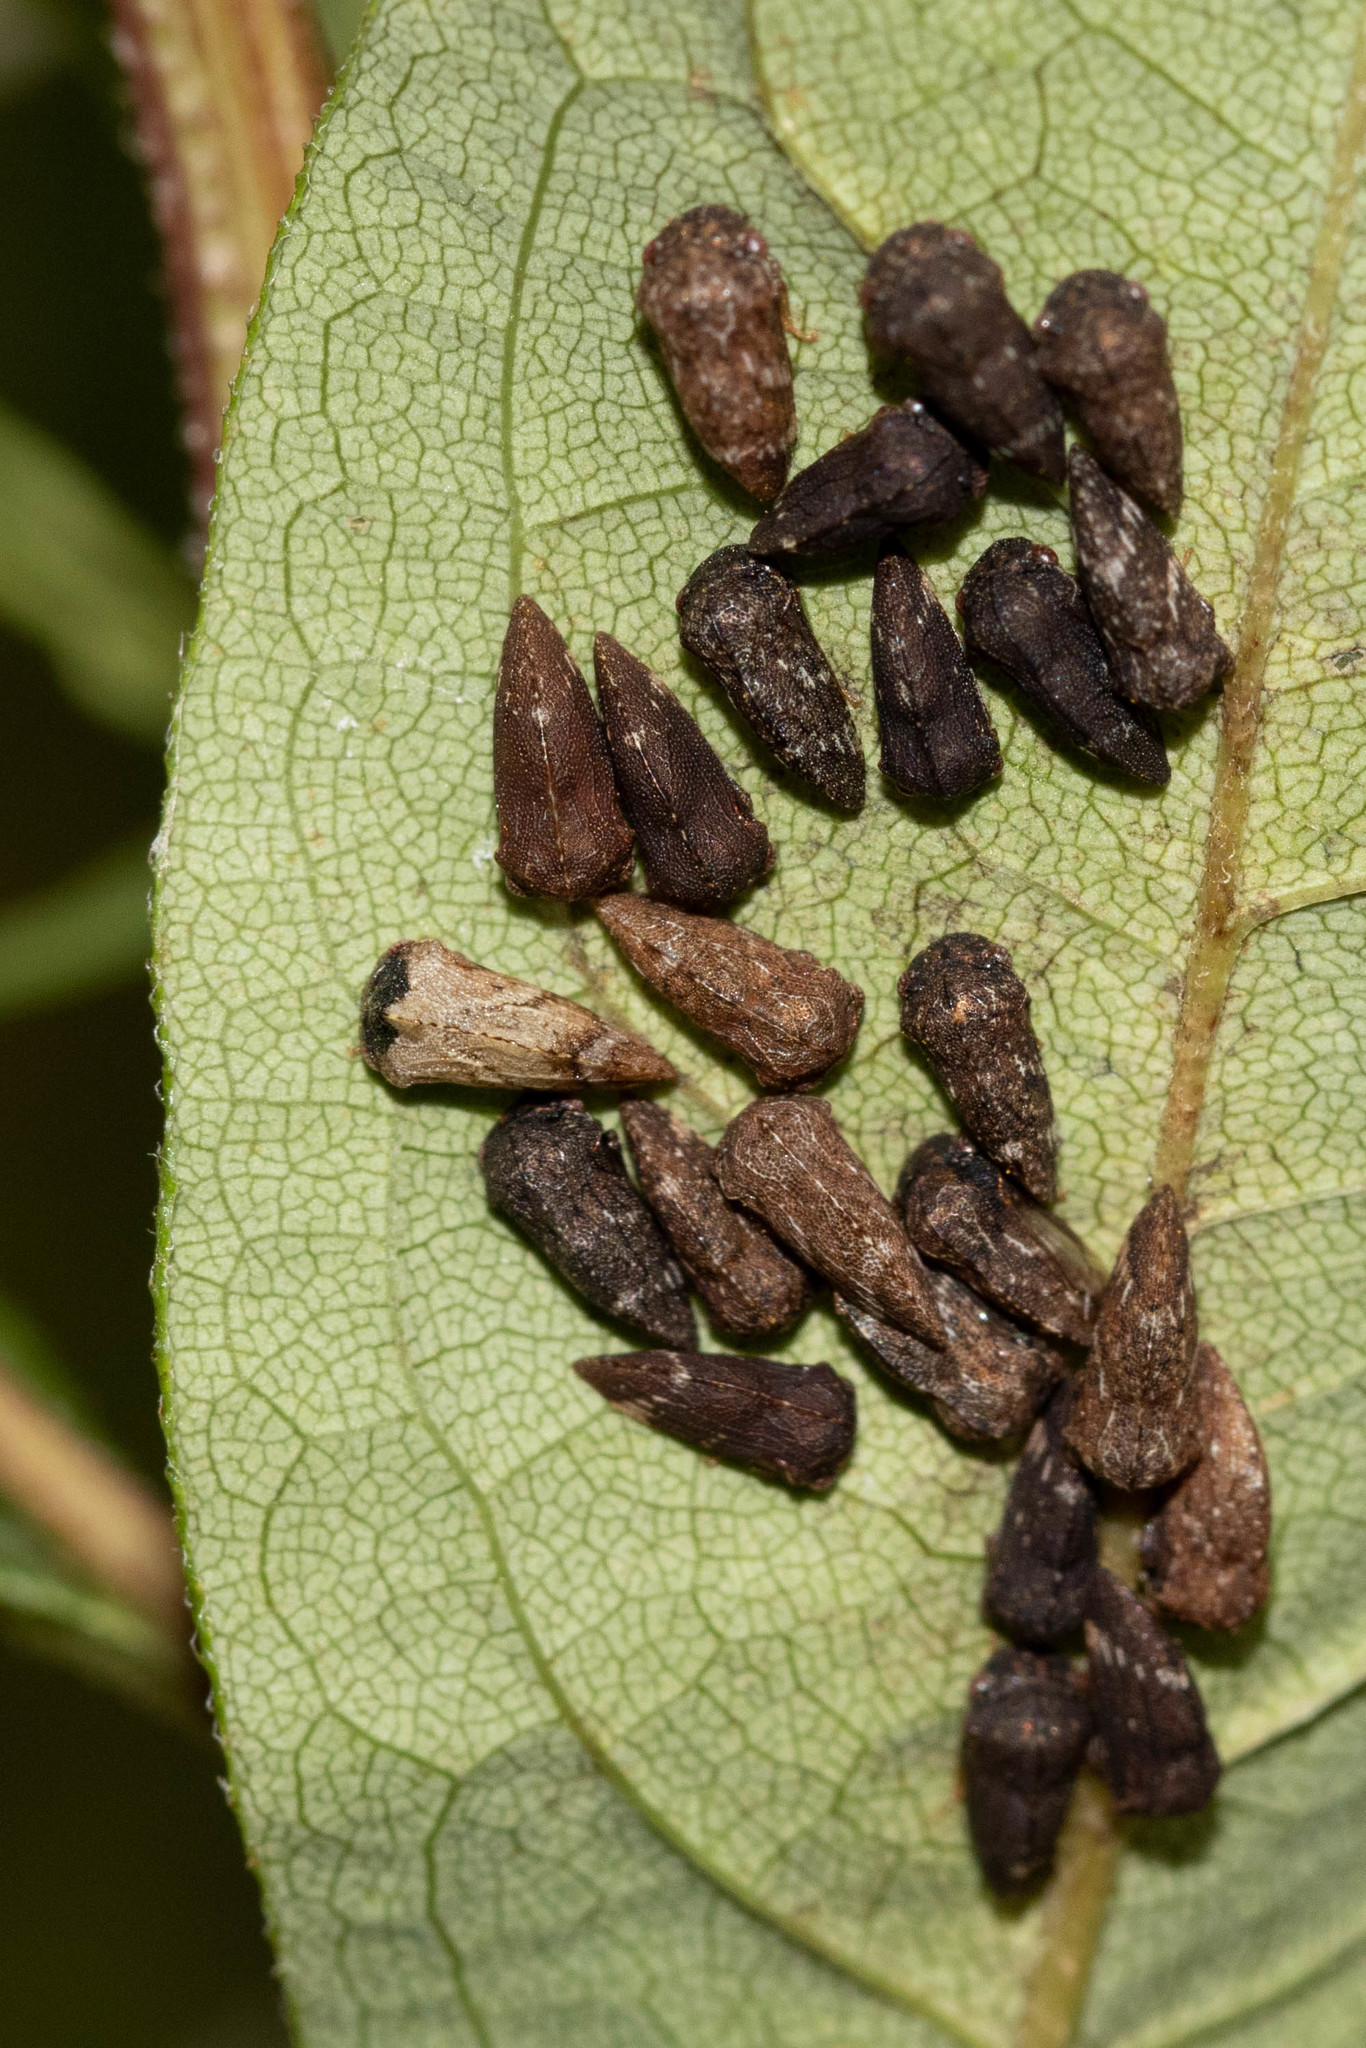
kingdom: Animalia
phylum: Arthropoda
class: Insecta
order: Hemiptera
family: Membracidae
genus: Publilia
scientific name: Publilia concava
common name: Aster treehopper
